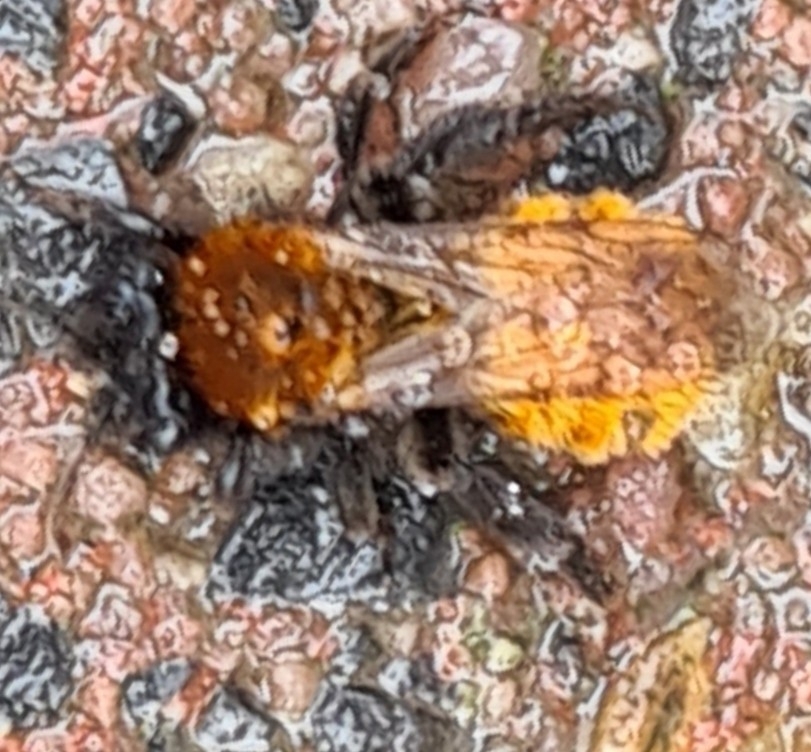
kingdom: Animalia
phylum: Arthropoda
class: Insecta
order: Hymenoptera
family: Andrenidae
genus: Andrena
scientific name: Andrena fulva
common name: Tawny mining bee
